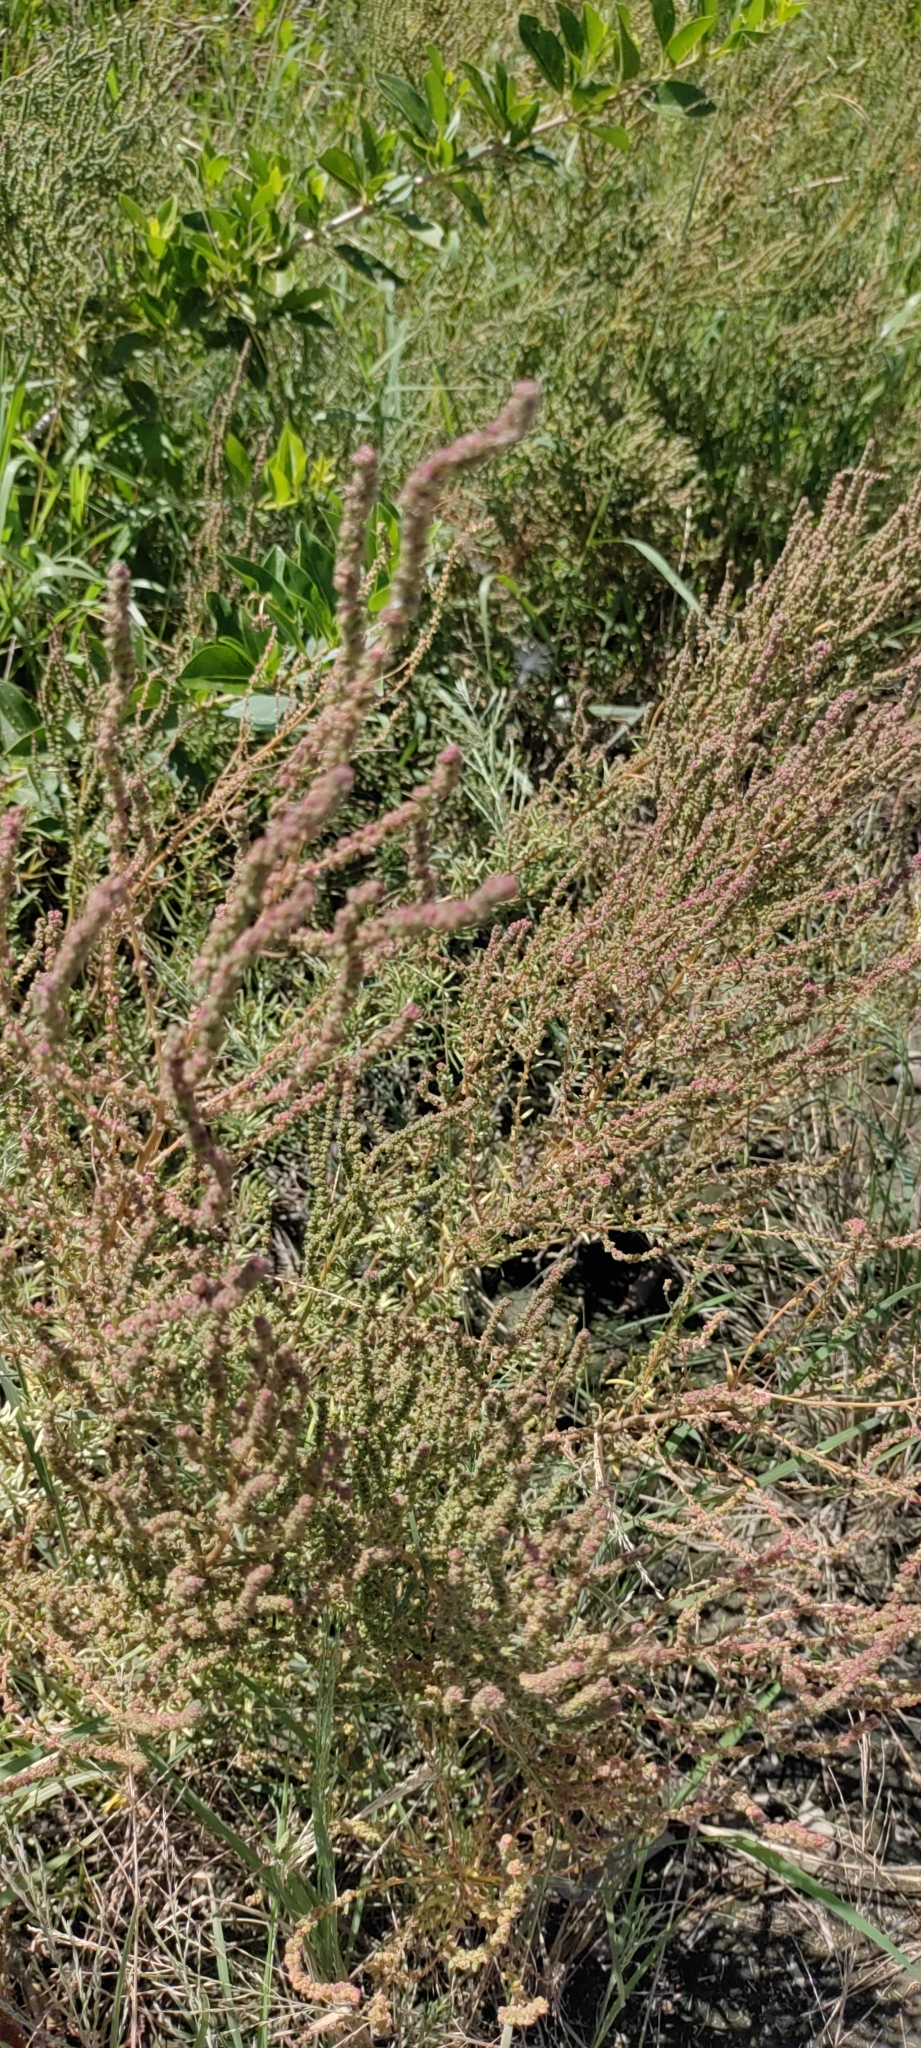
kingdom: Plantae
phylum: Tracheophyta
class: Magnoliopsida
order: Caryophyllales
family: Amaranthaceae
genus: Suaeda
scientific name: Suaeda maritima
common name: Annual sea-blite
